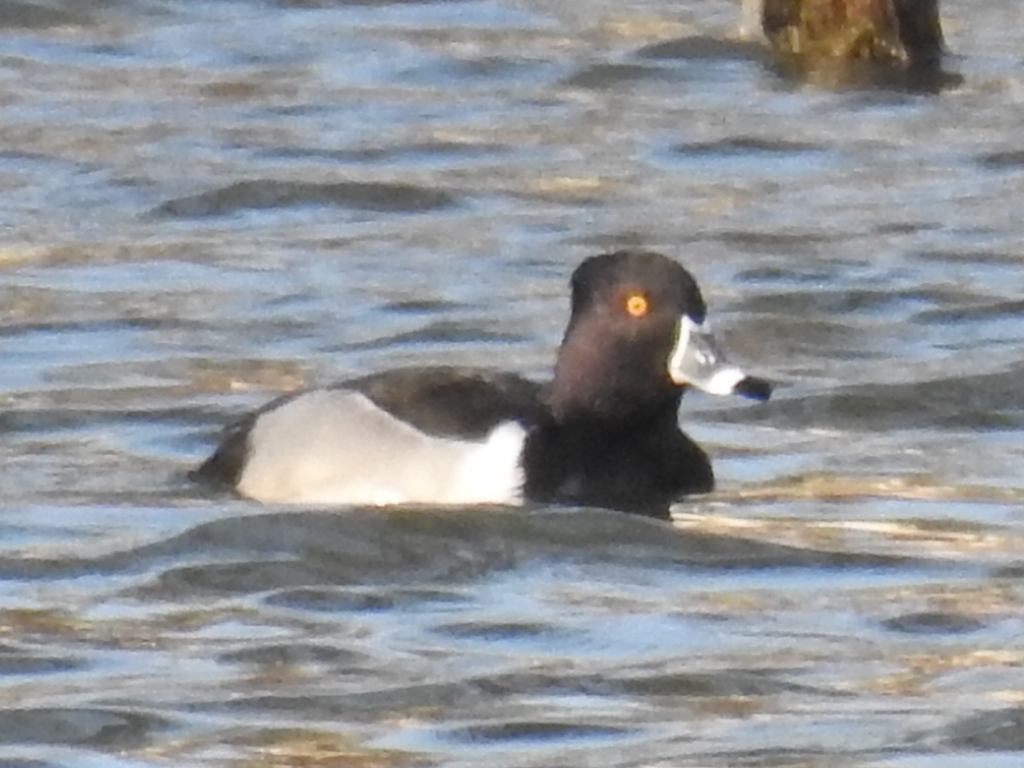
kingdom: Animalia
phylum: Chordata
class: Aves
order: Anseriformes
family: Anatidae
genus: Aythya
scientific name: Aythya collaris
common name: Ring-necked duck
